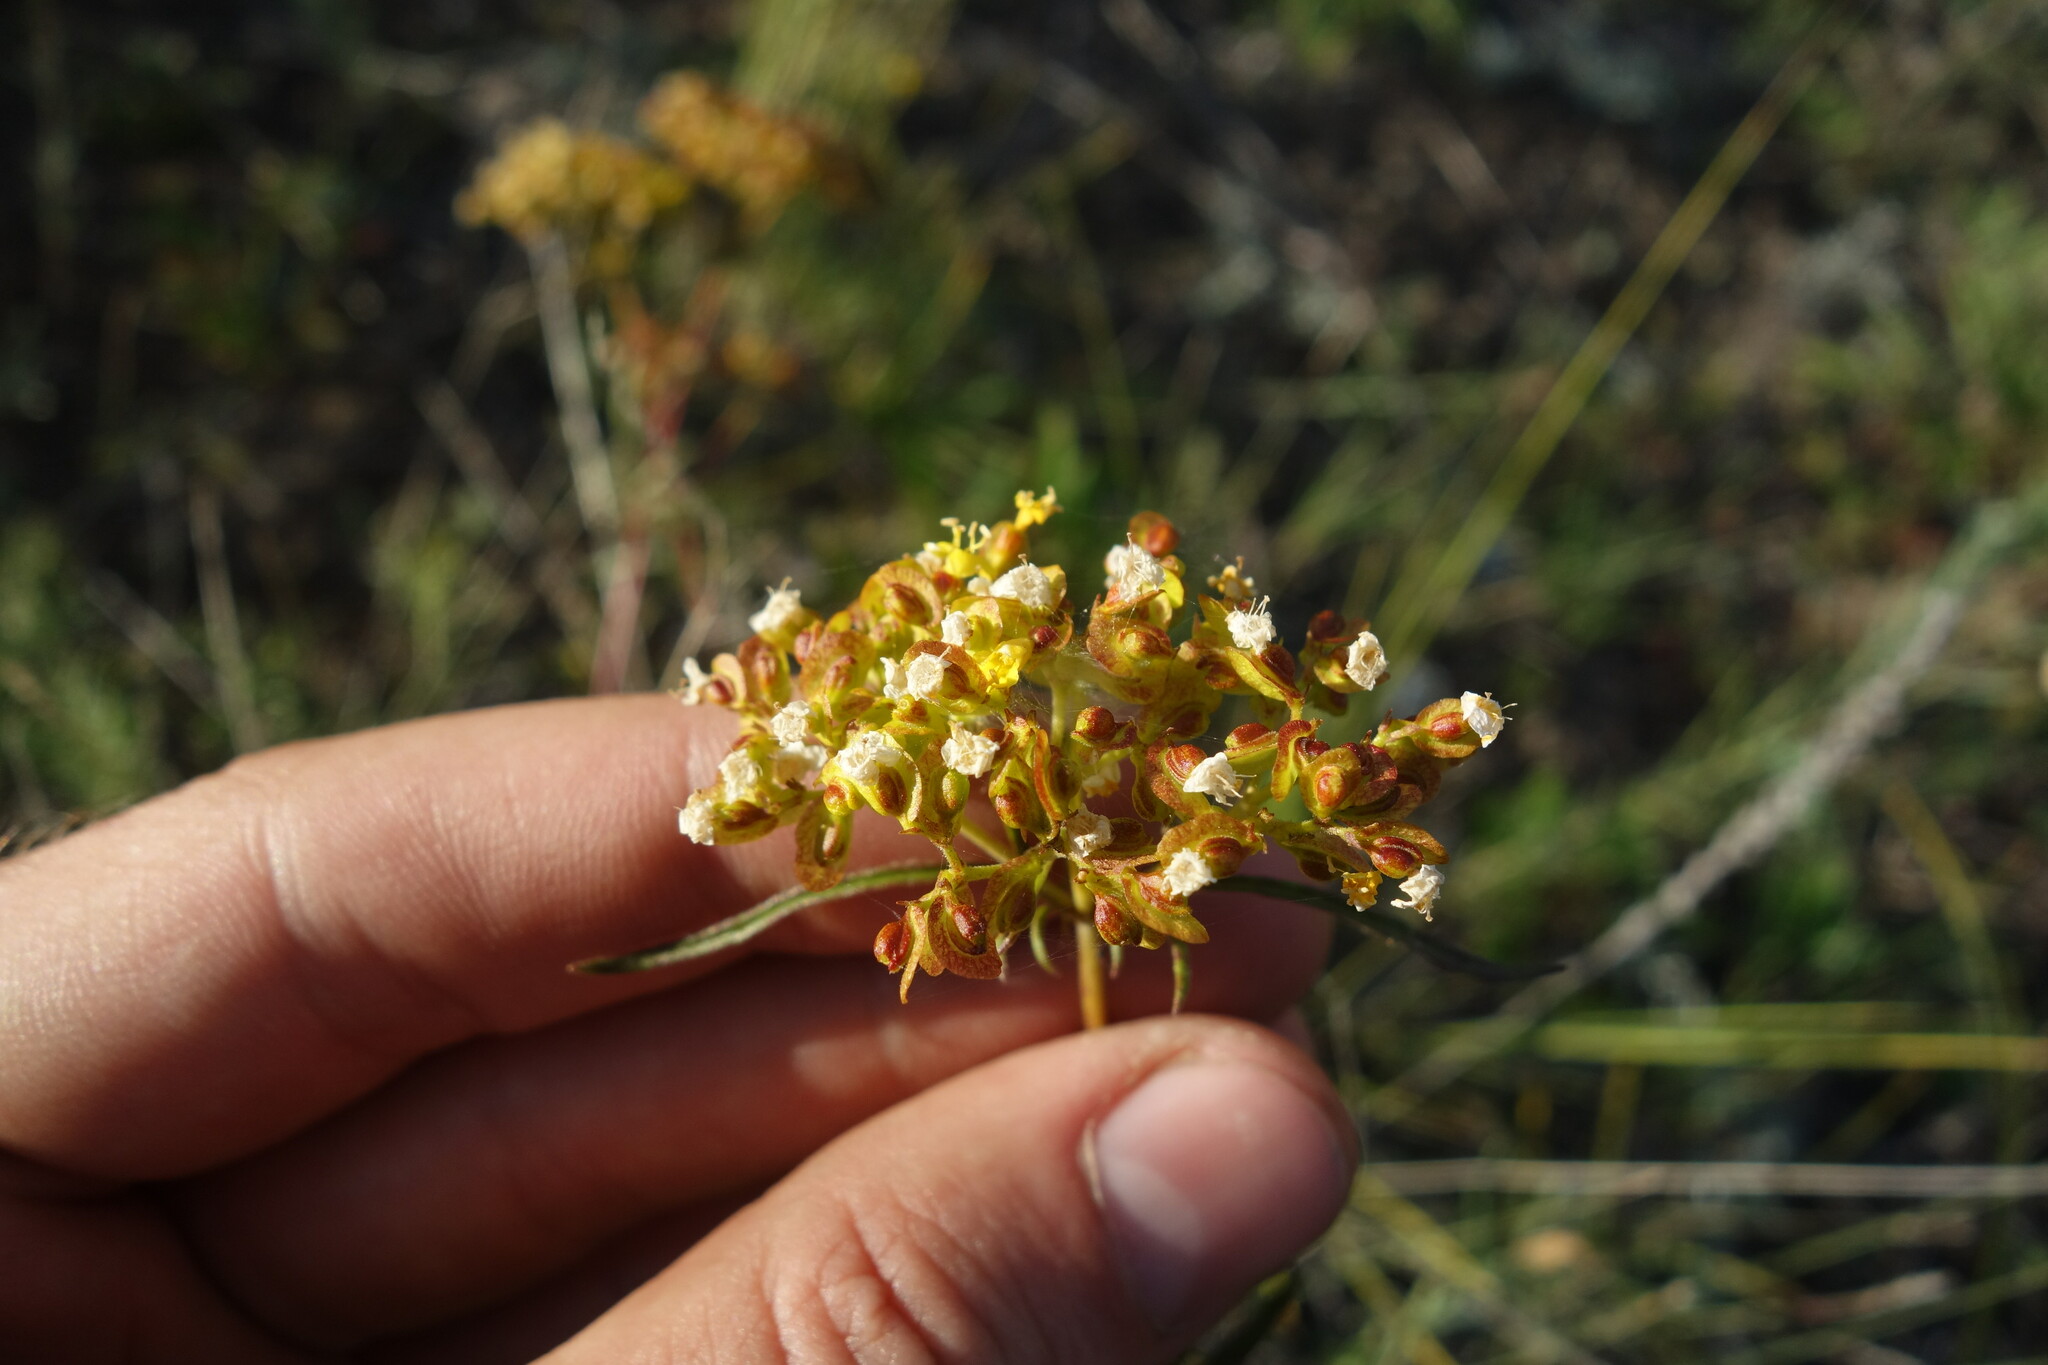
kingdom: Plantae
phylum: Tracheophyta
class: Magnoliopsida
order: Dipsacales
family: Caprifoliaceae
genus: Patrinia
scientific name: Patrinia rupestris
